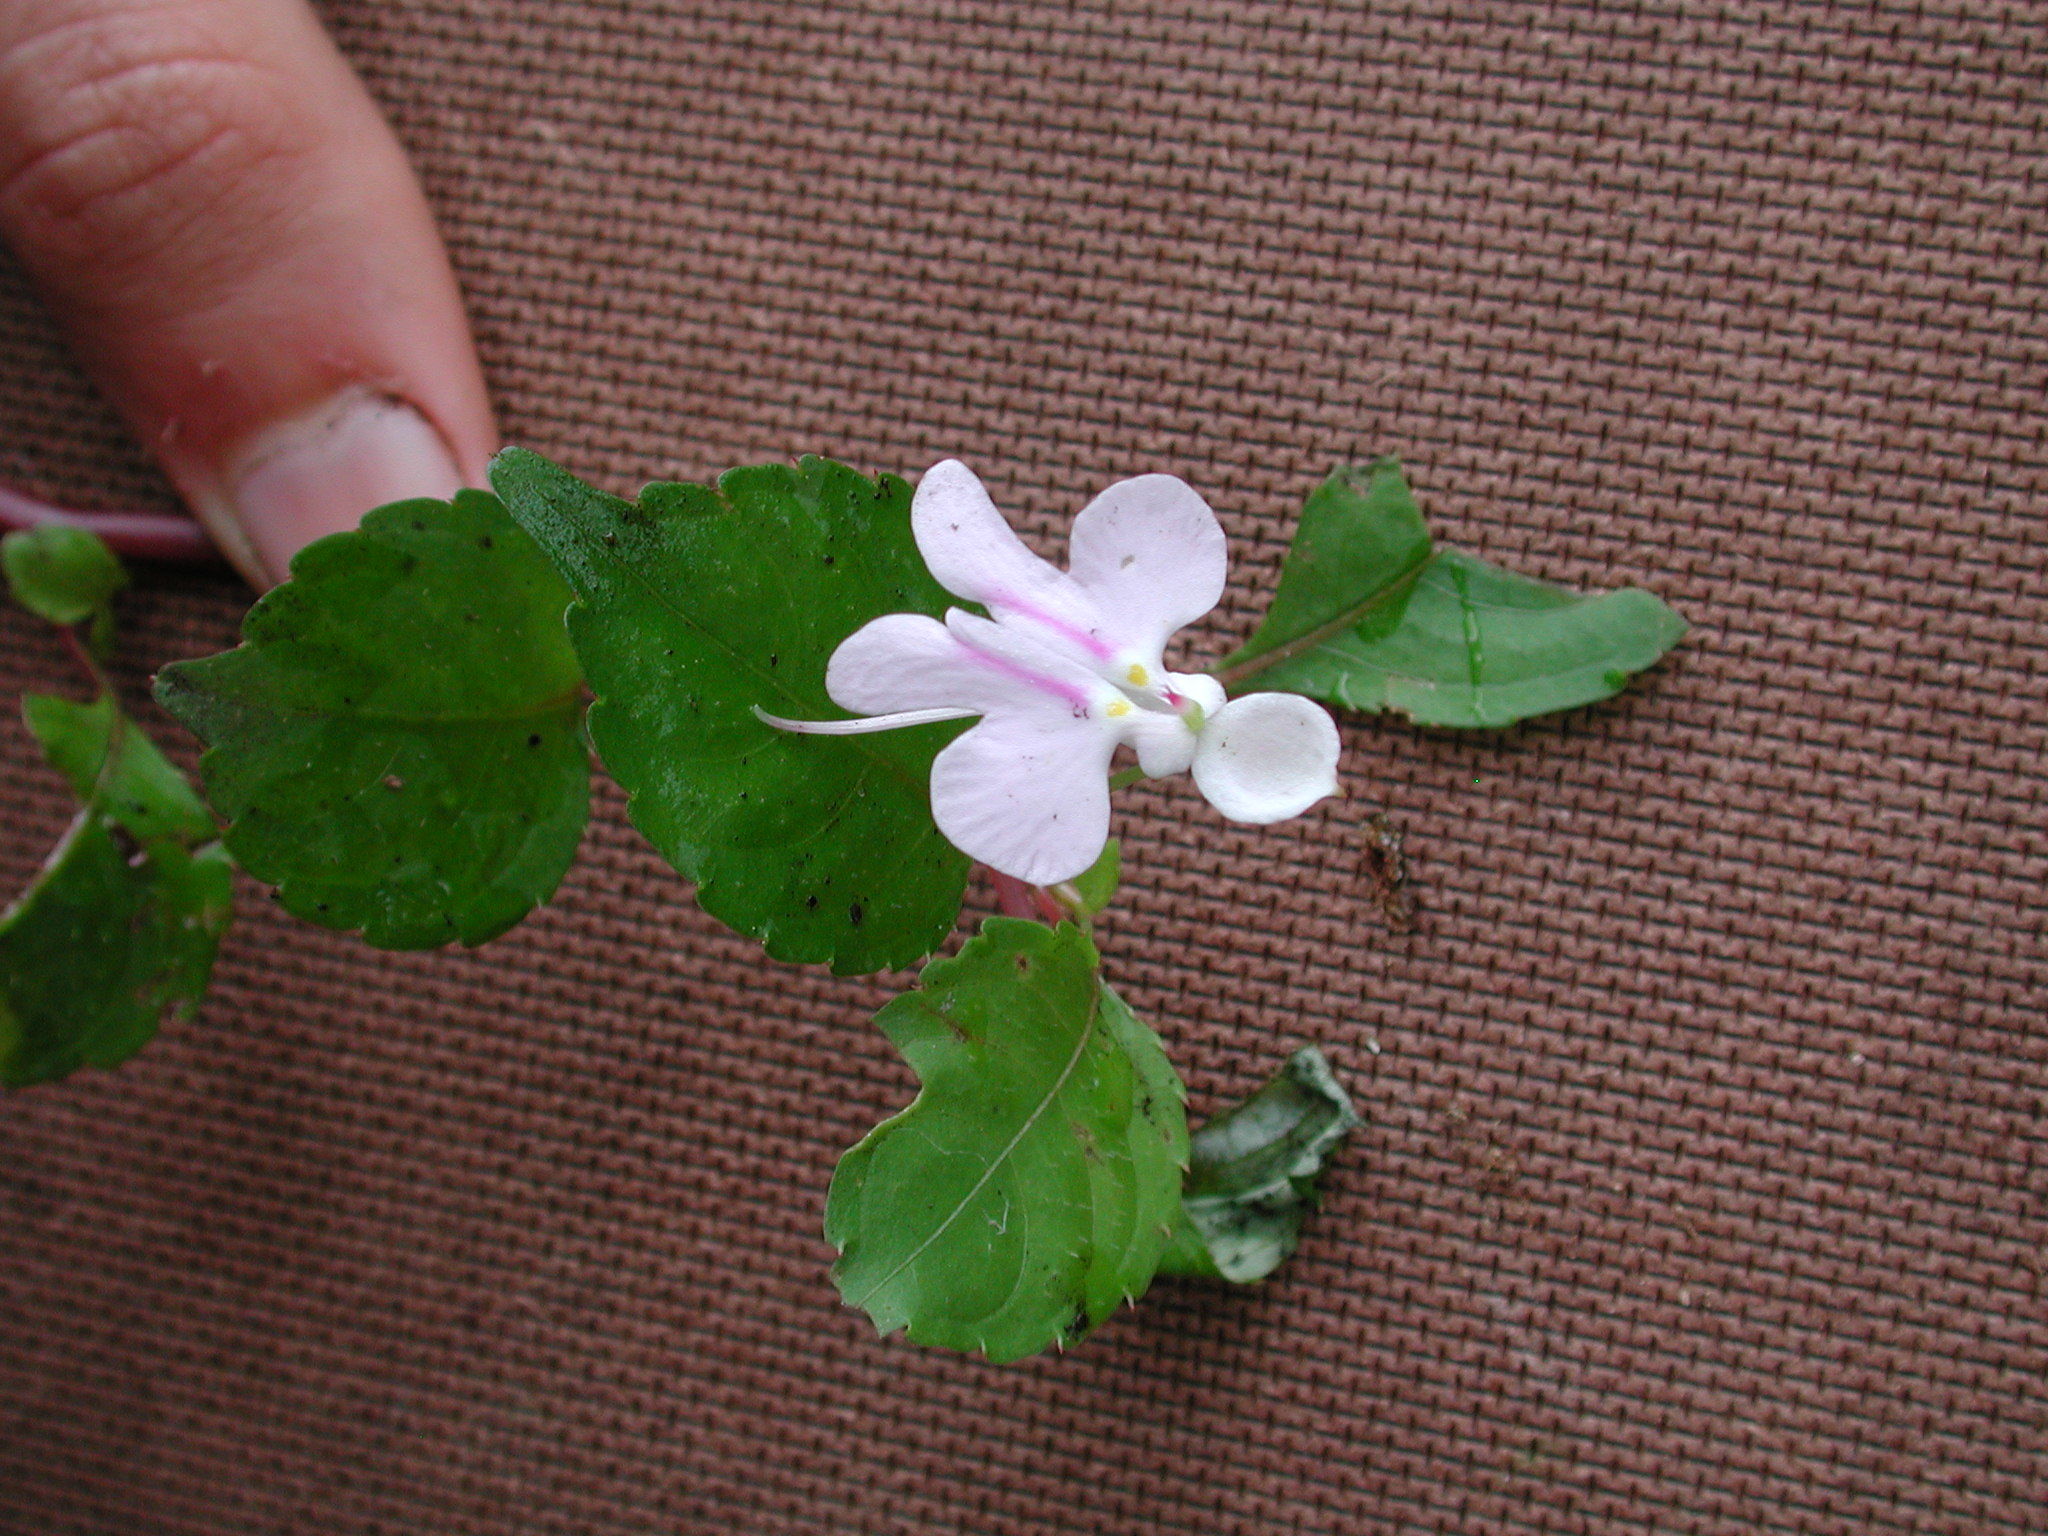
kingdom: Plantae
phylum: Tracheophyta
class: Magnoliopsida
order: Ericales
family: Balsaminaceae
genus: Impatiens
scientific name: Impatiens hochstetteri
